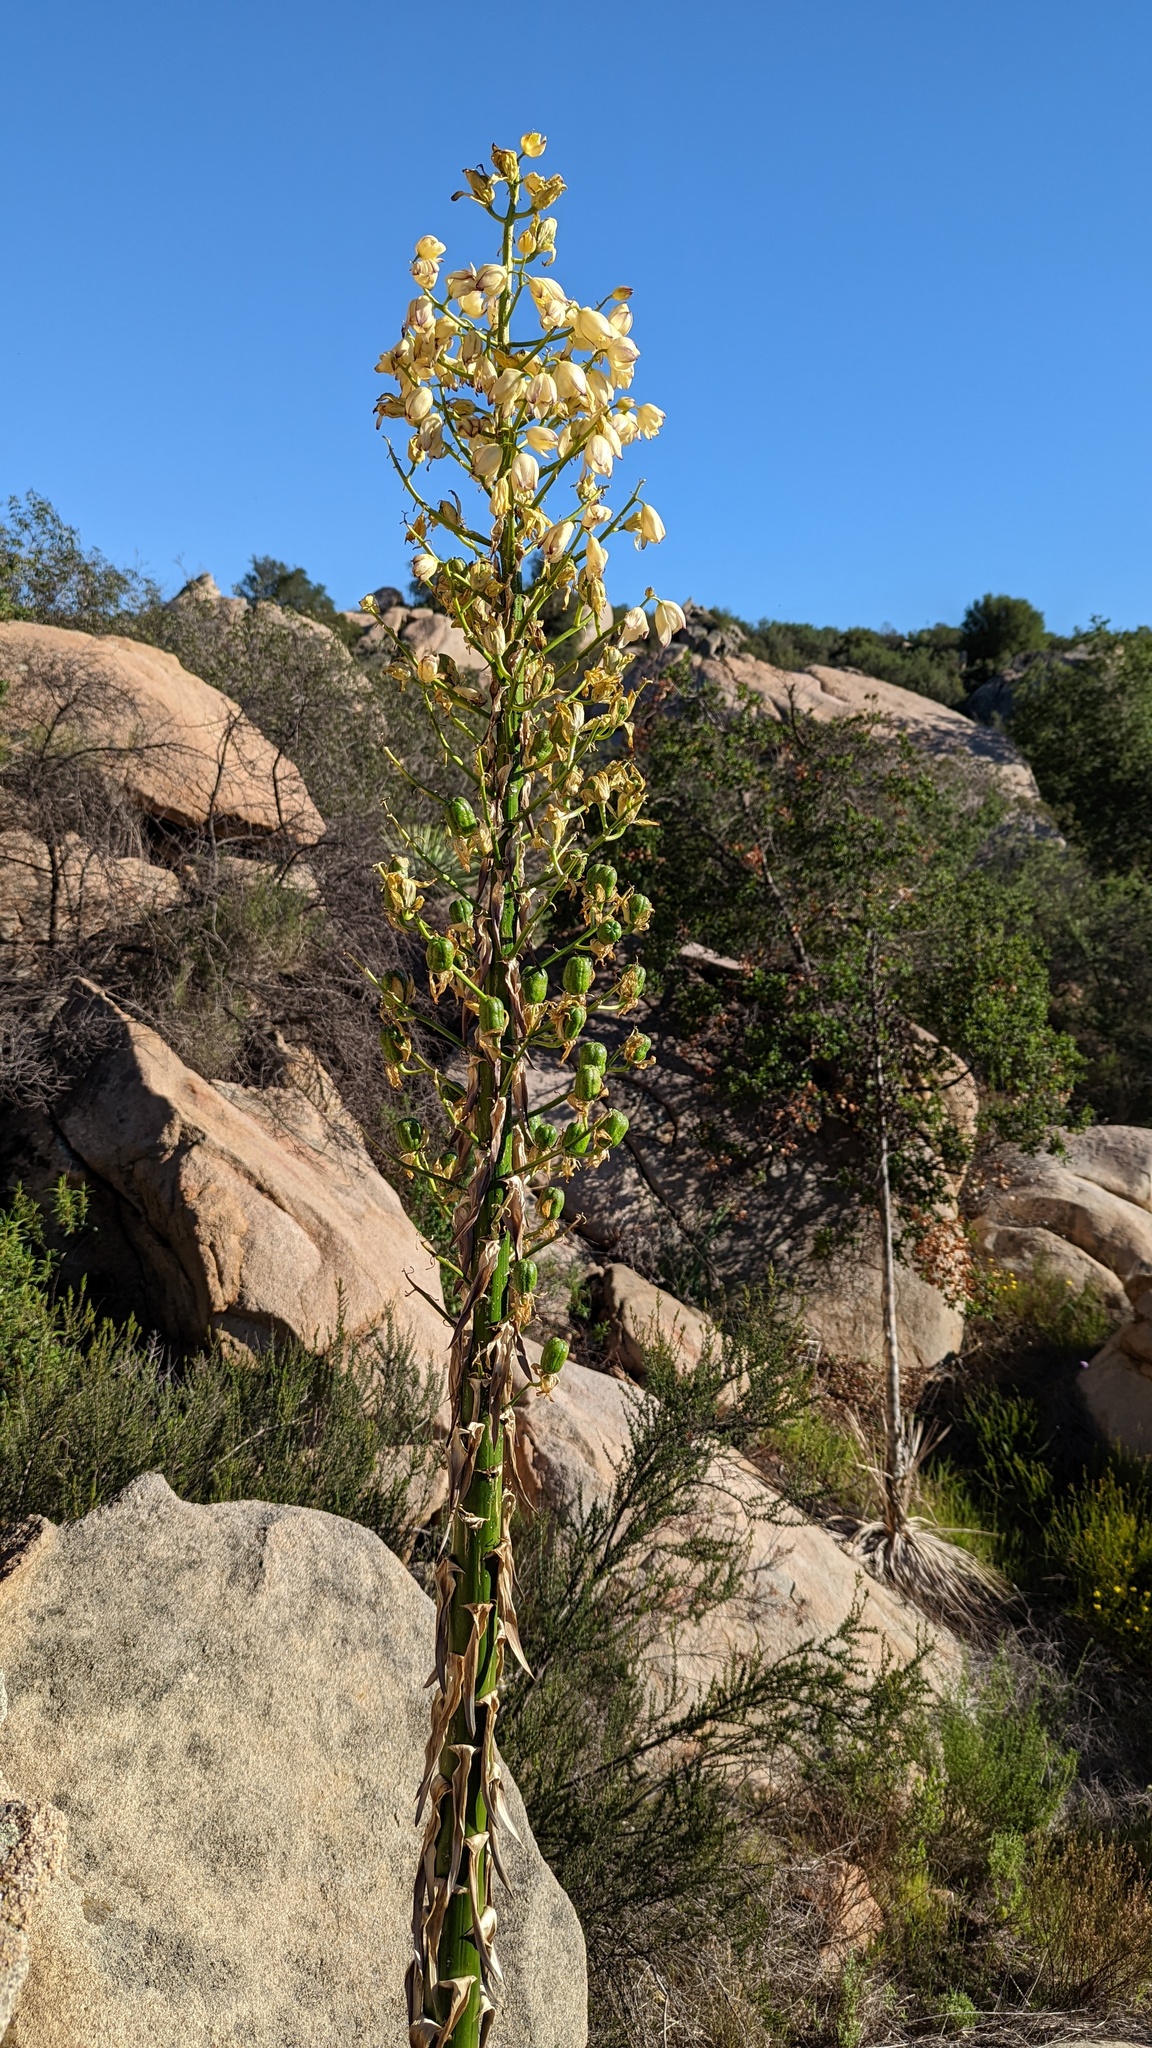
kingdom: Plantae
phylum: Tracheophyta
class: Liliopsida
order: Asparagales
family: Asparagaceae
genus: Hesperoyucca
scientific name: Hesperoyucca whipplei
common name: Our lord's-candle
